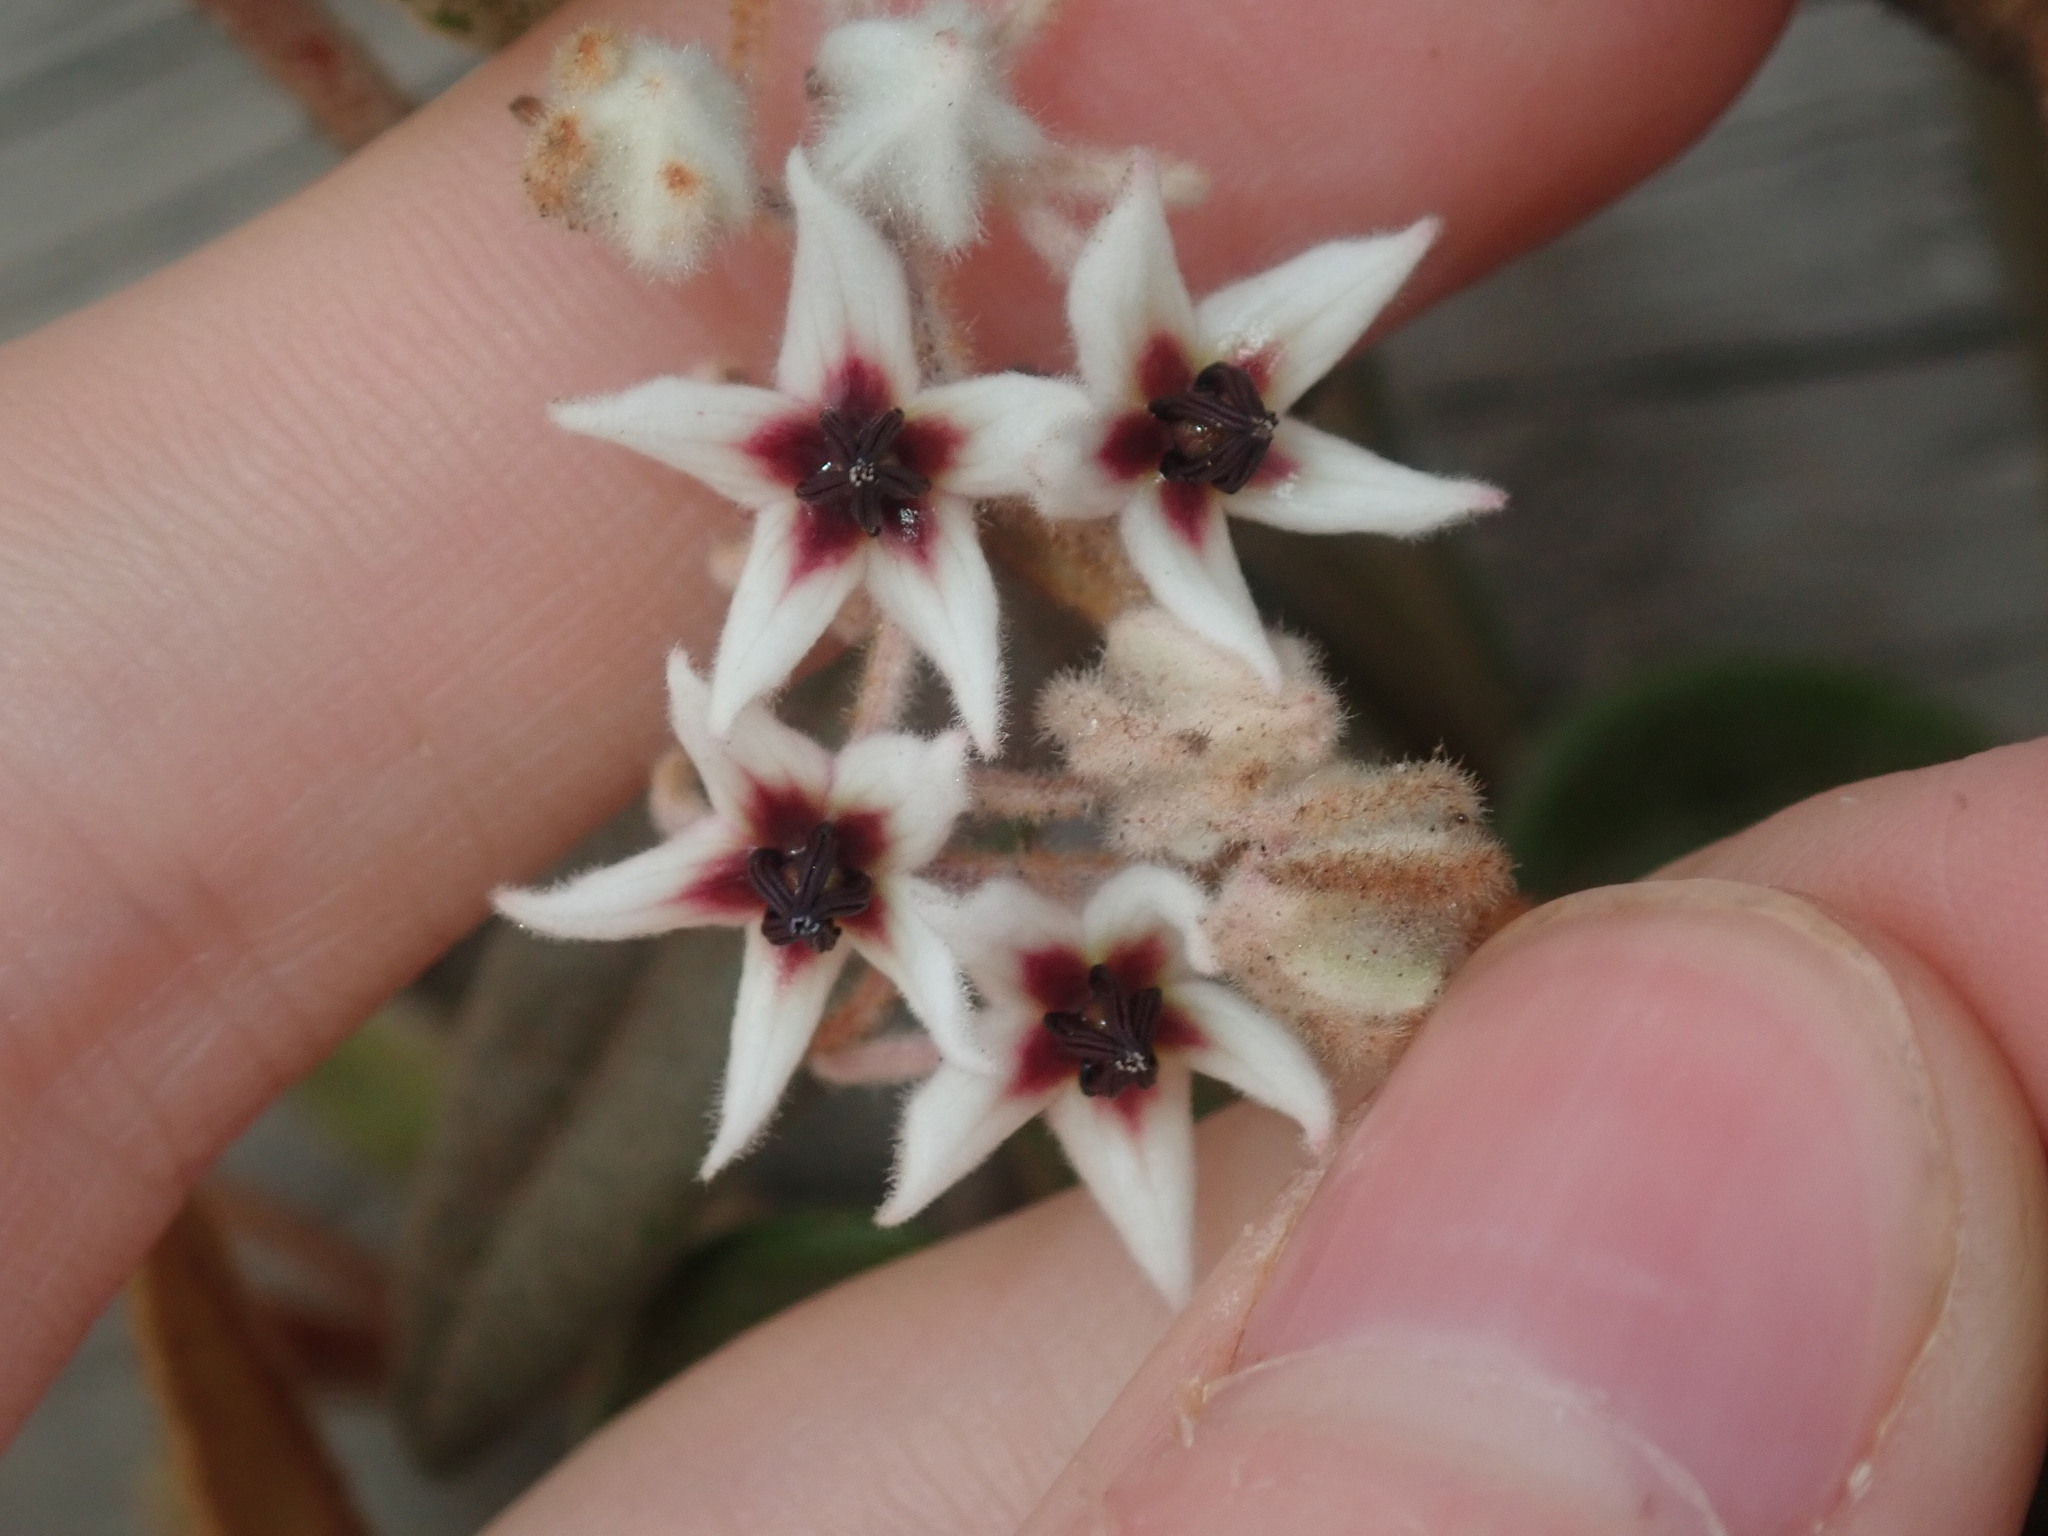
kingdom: Plantae
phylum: Tracheophyta
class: Magnoliopsida
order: Malvales
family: Malvaceae
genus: Lasiopetalum
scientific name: Lasiopetalum monticola
